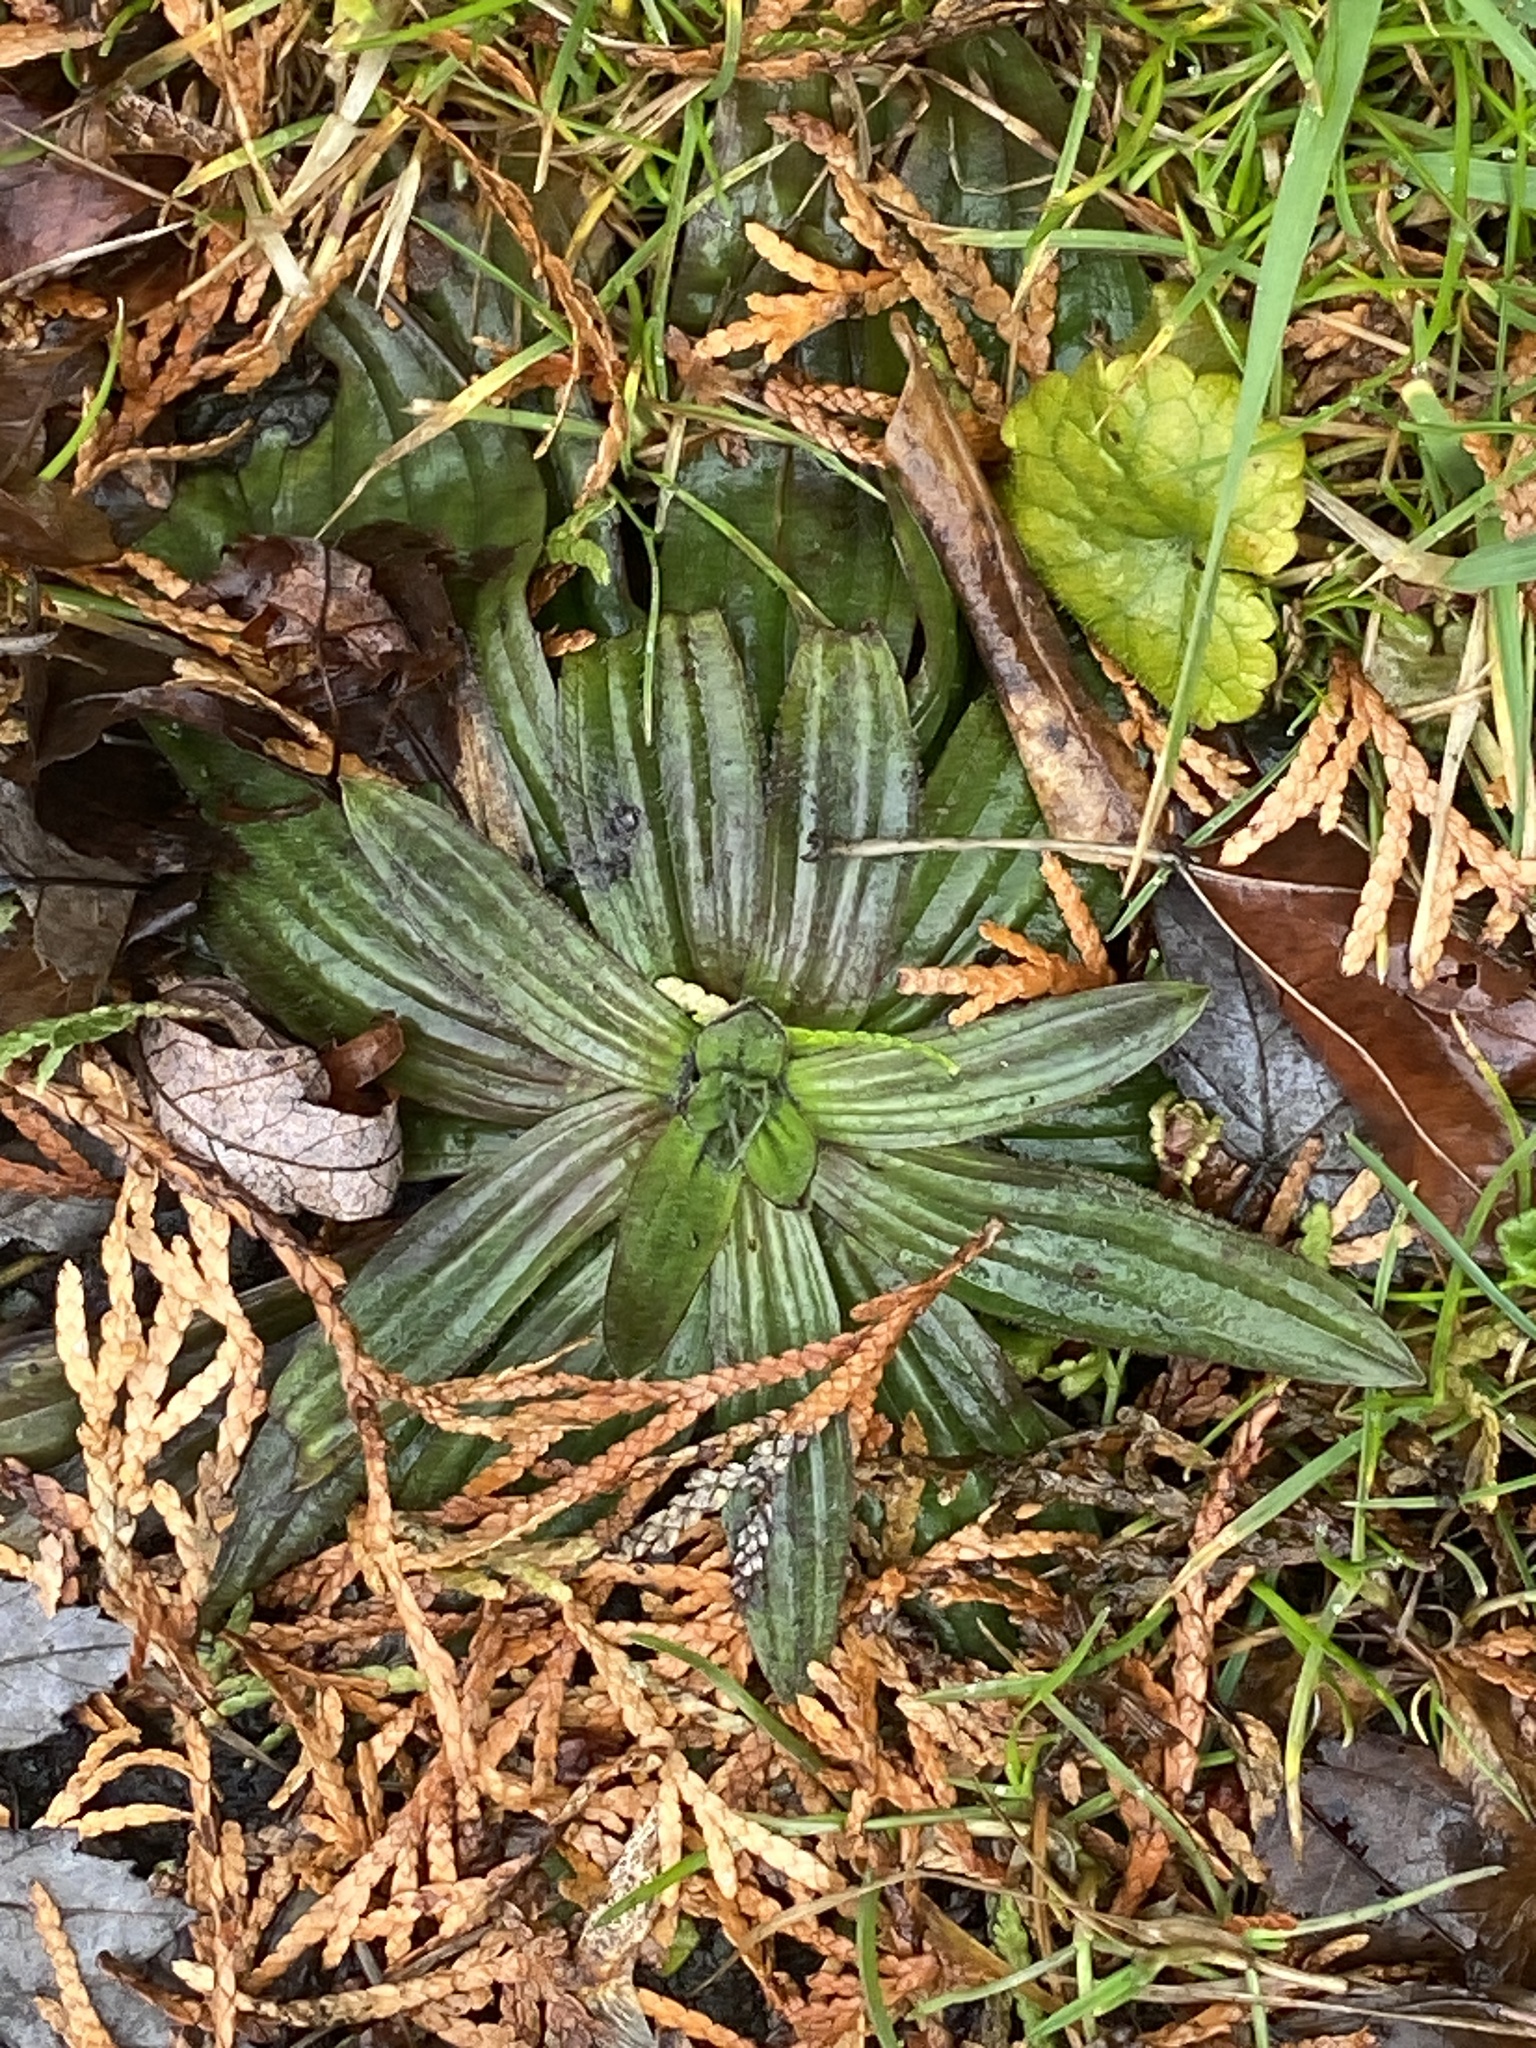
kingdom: Plantae
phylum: Tracheophyta
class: Magnoliopsida
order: Lamiales
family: Plantaginaceae
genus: Plantago
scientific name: Plantago lanceolata
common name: Ribwort plantain
